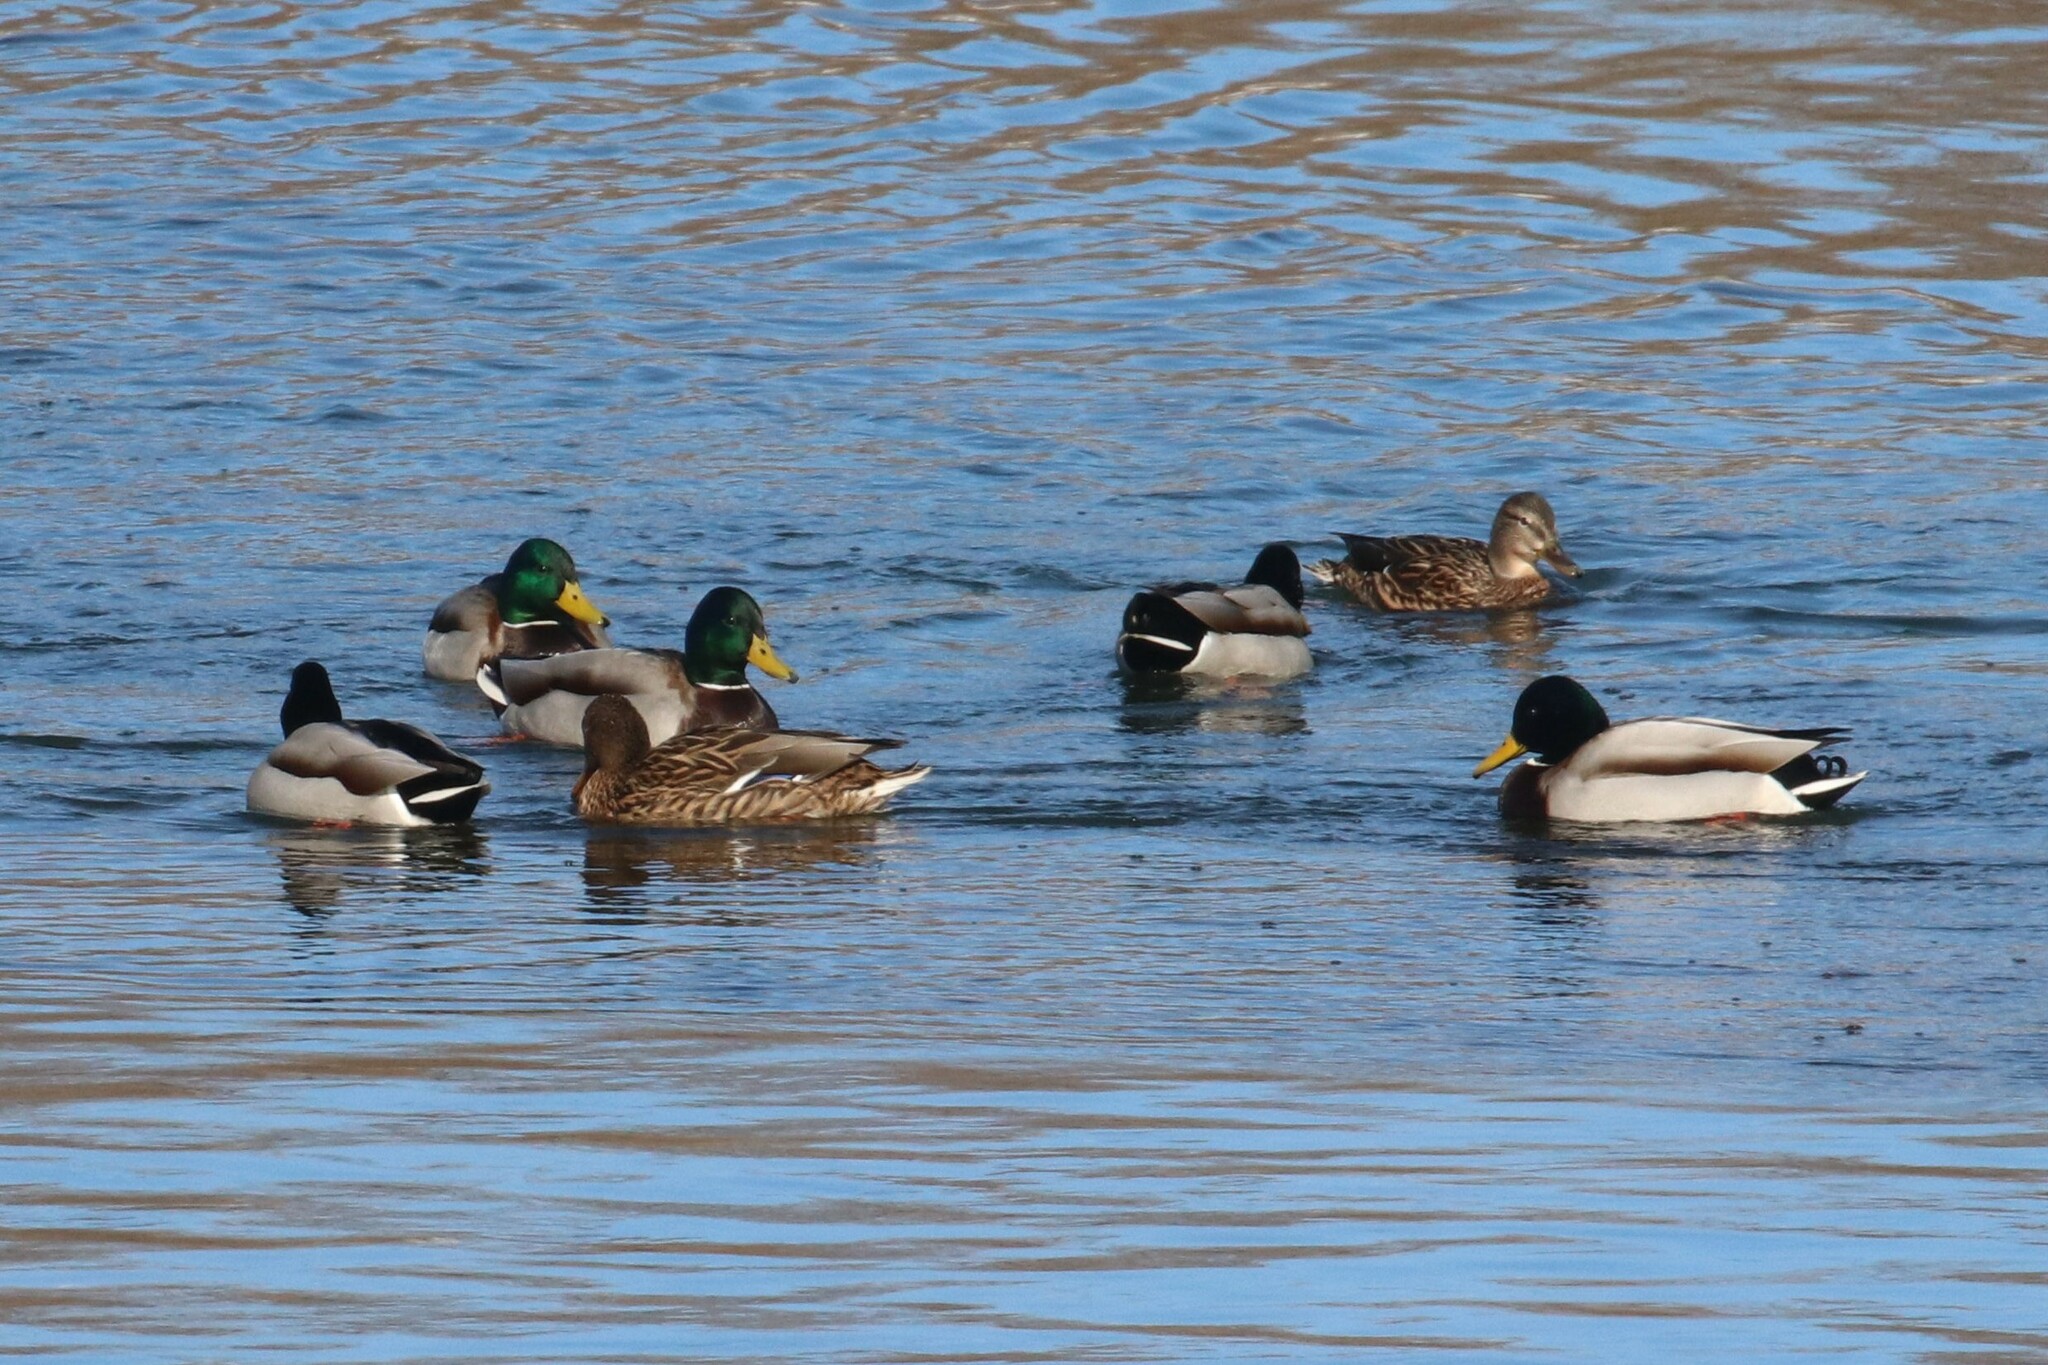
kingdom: Animalia
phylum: Chordata
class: Aves
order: Anseriformes
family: Anatidae
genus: Anas
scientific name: Anas platyrhynchos
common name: Mallard
